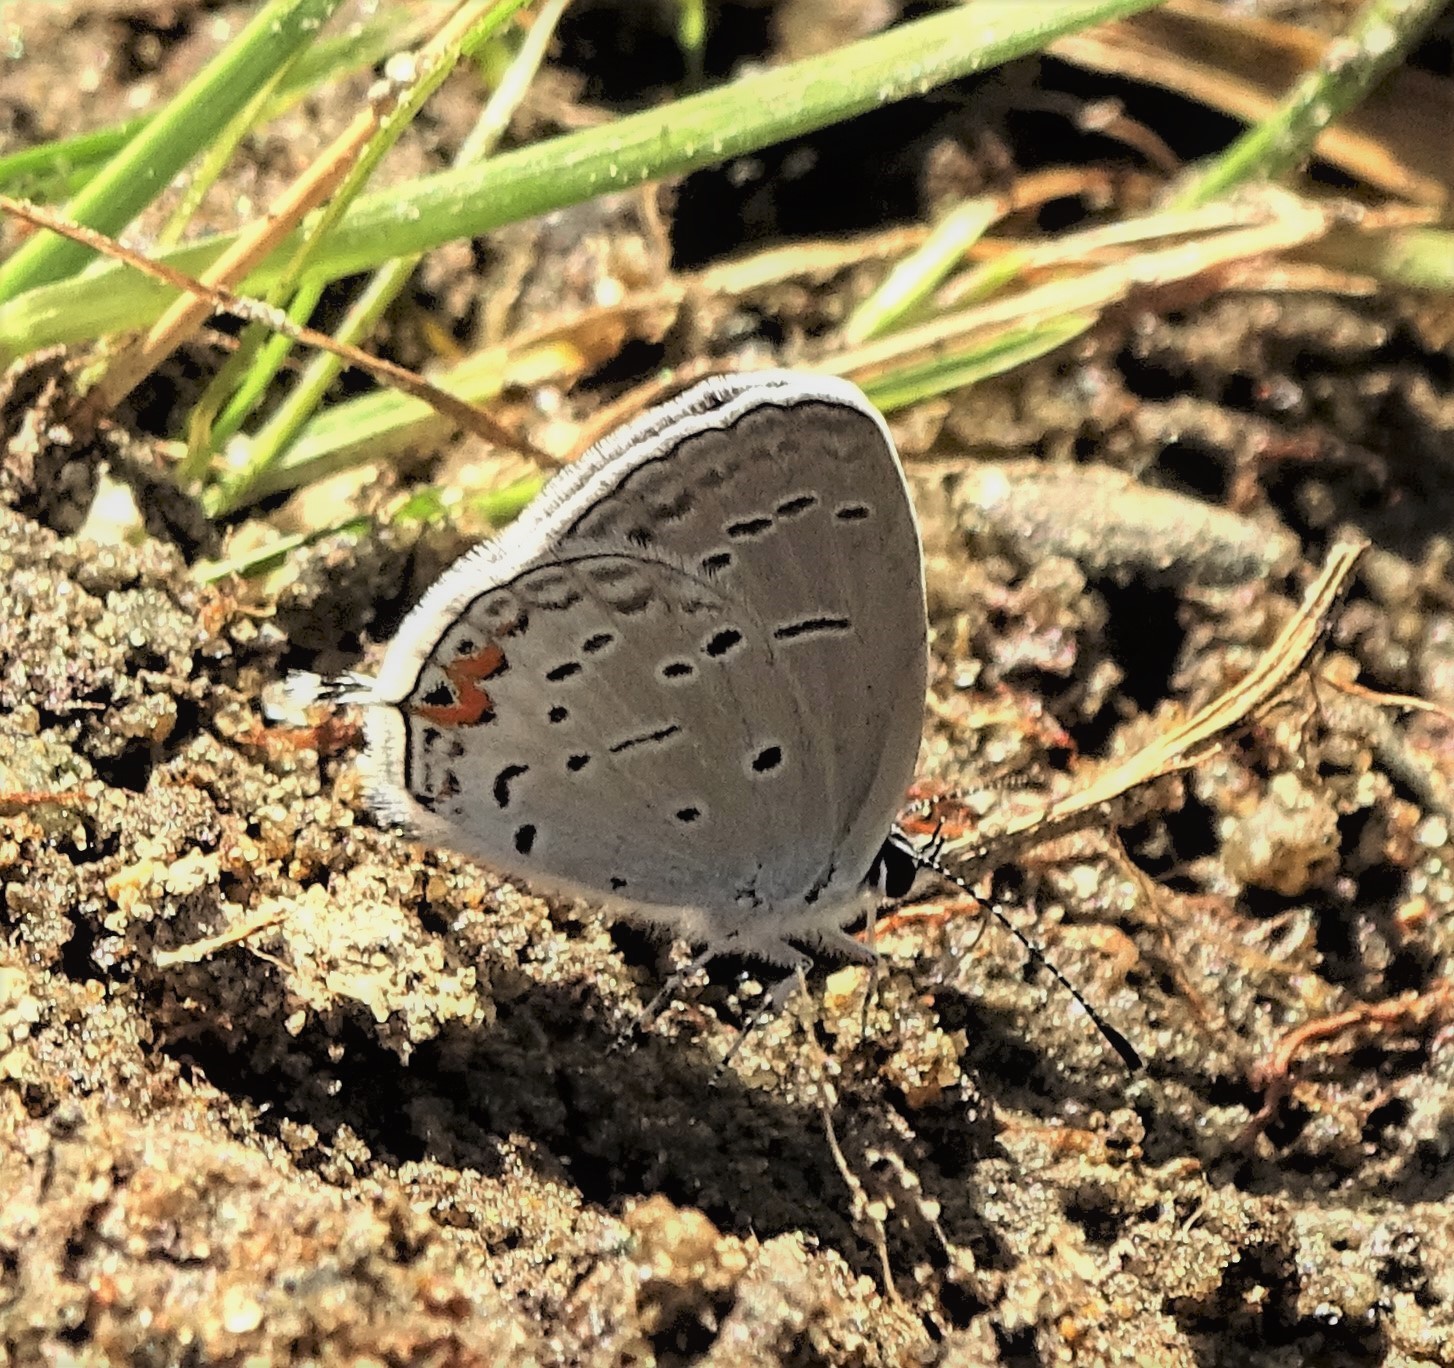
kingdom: Animalia
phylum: Arthropoda
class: Insecta
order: Lepidoptera
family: Lycaenidae
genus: Elkalyce
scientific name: Elkalyce comyntas
